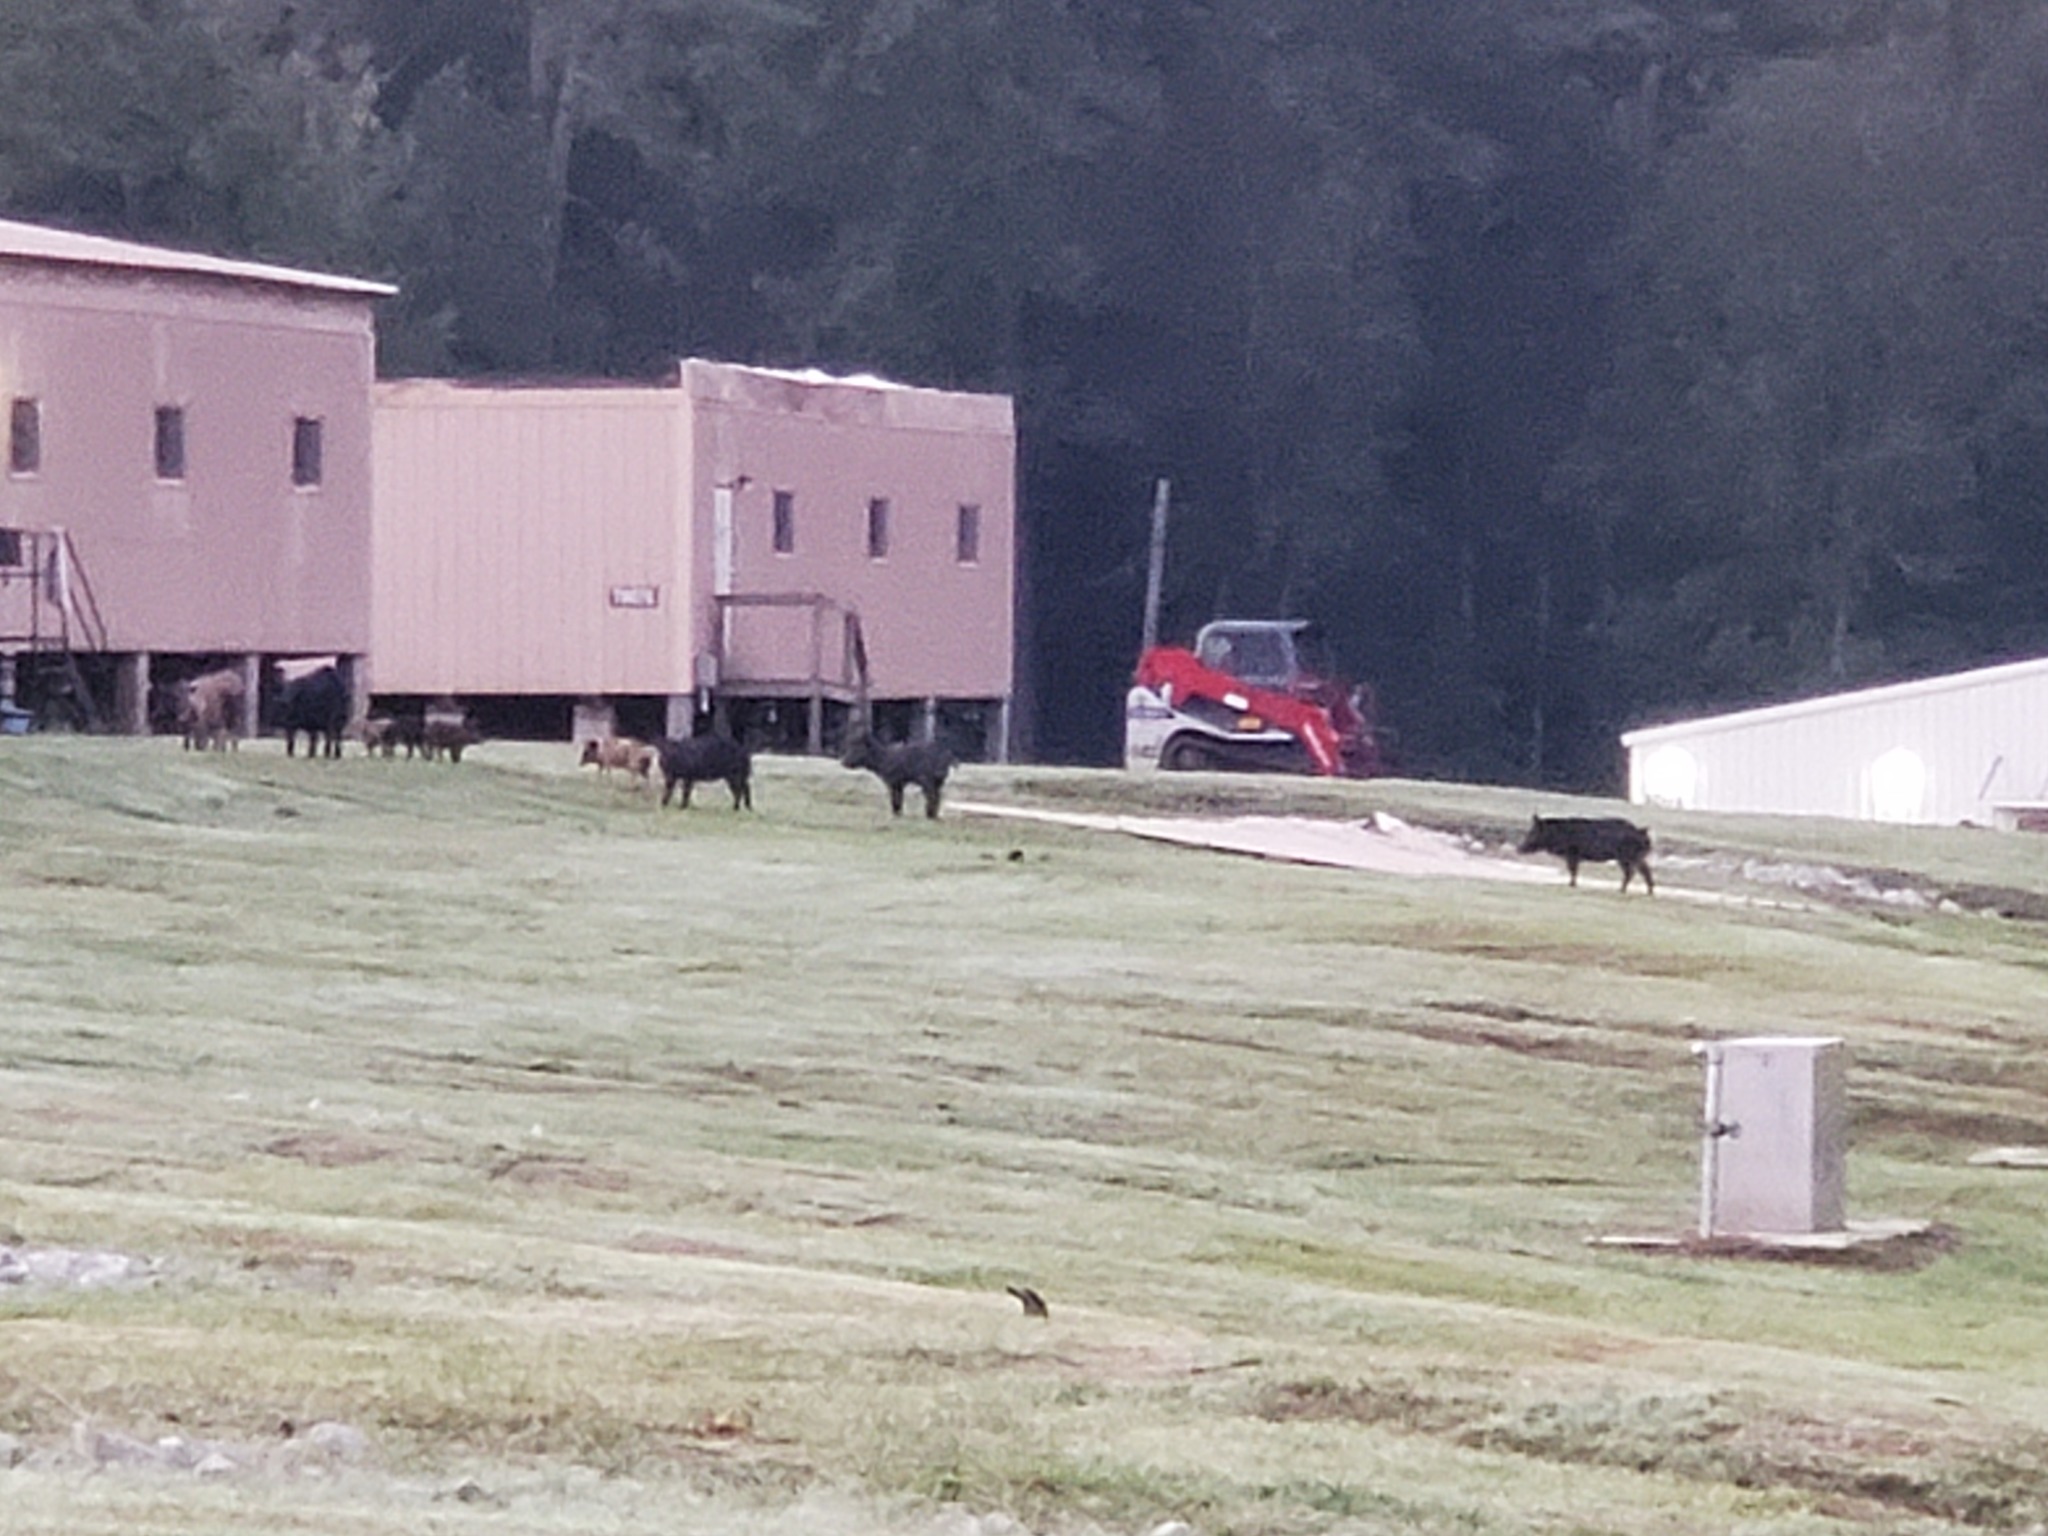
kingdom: Animalia
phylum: Chordata
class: Mammalia
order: Artiodactyla
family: Suidae
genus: Sus
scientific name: Sus scrofa
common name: Wild boar
